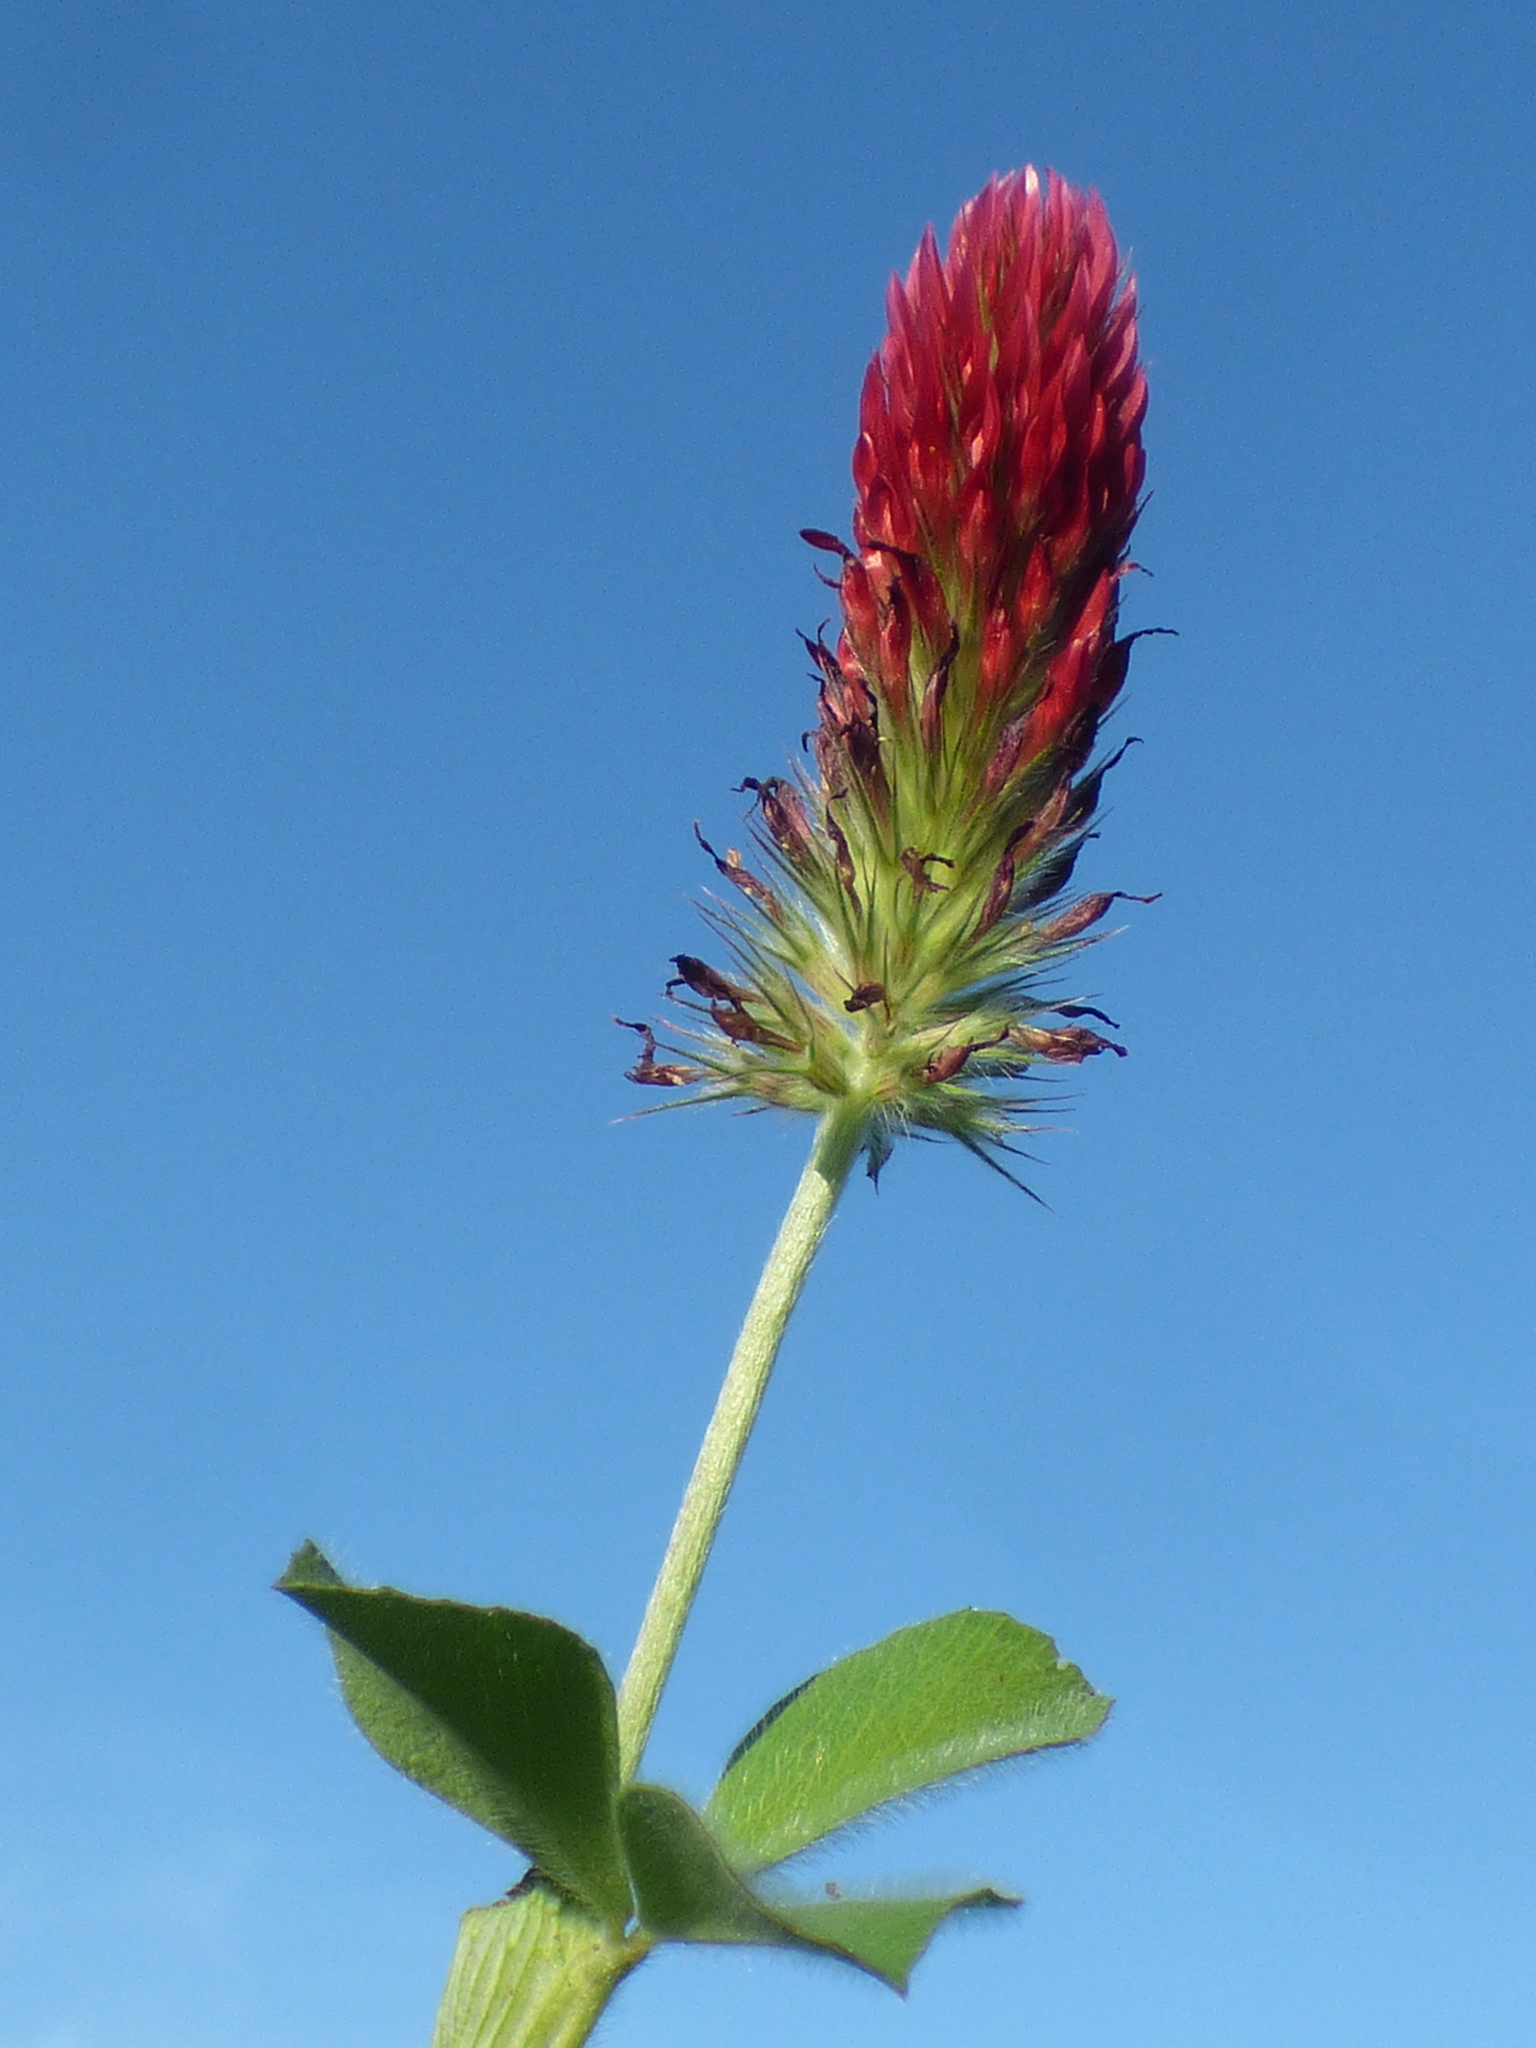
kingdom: Plantae
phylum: Tracheophyta
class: Magnoliopsida
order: Fabales
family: Fabaceae
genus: Trifolium
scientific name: Trifolium incarnatum
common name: Crimson clover
